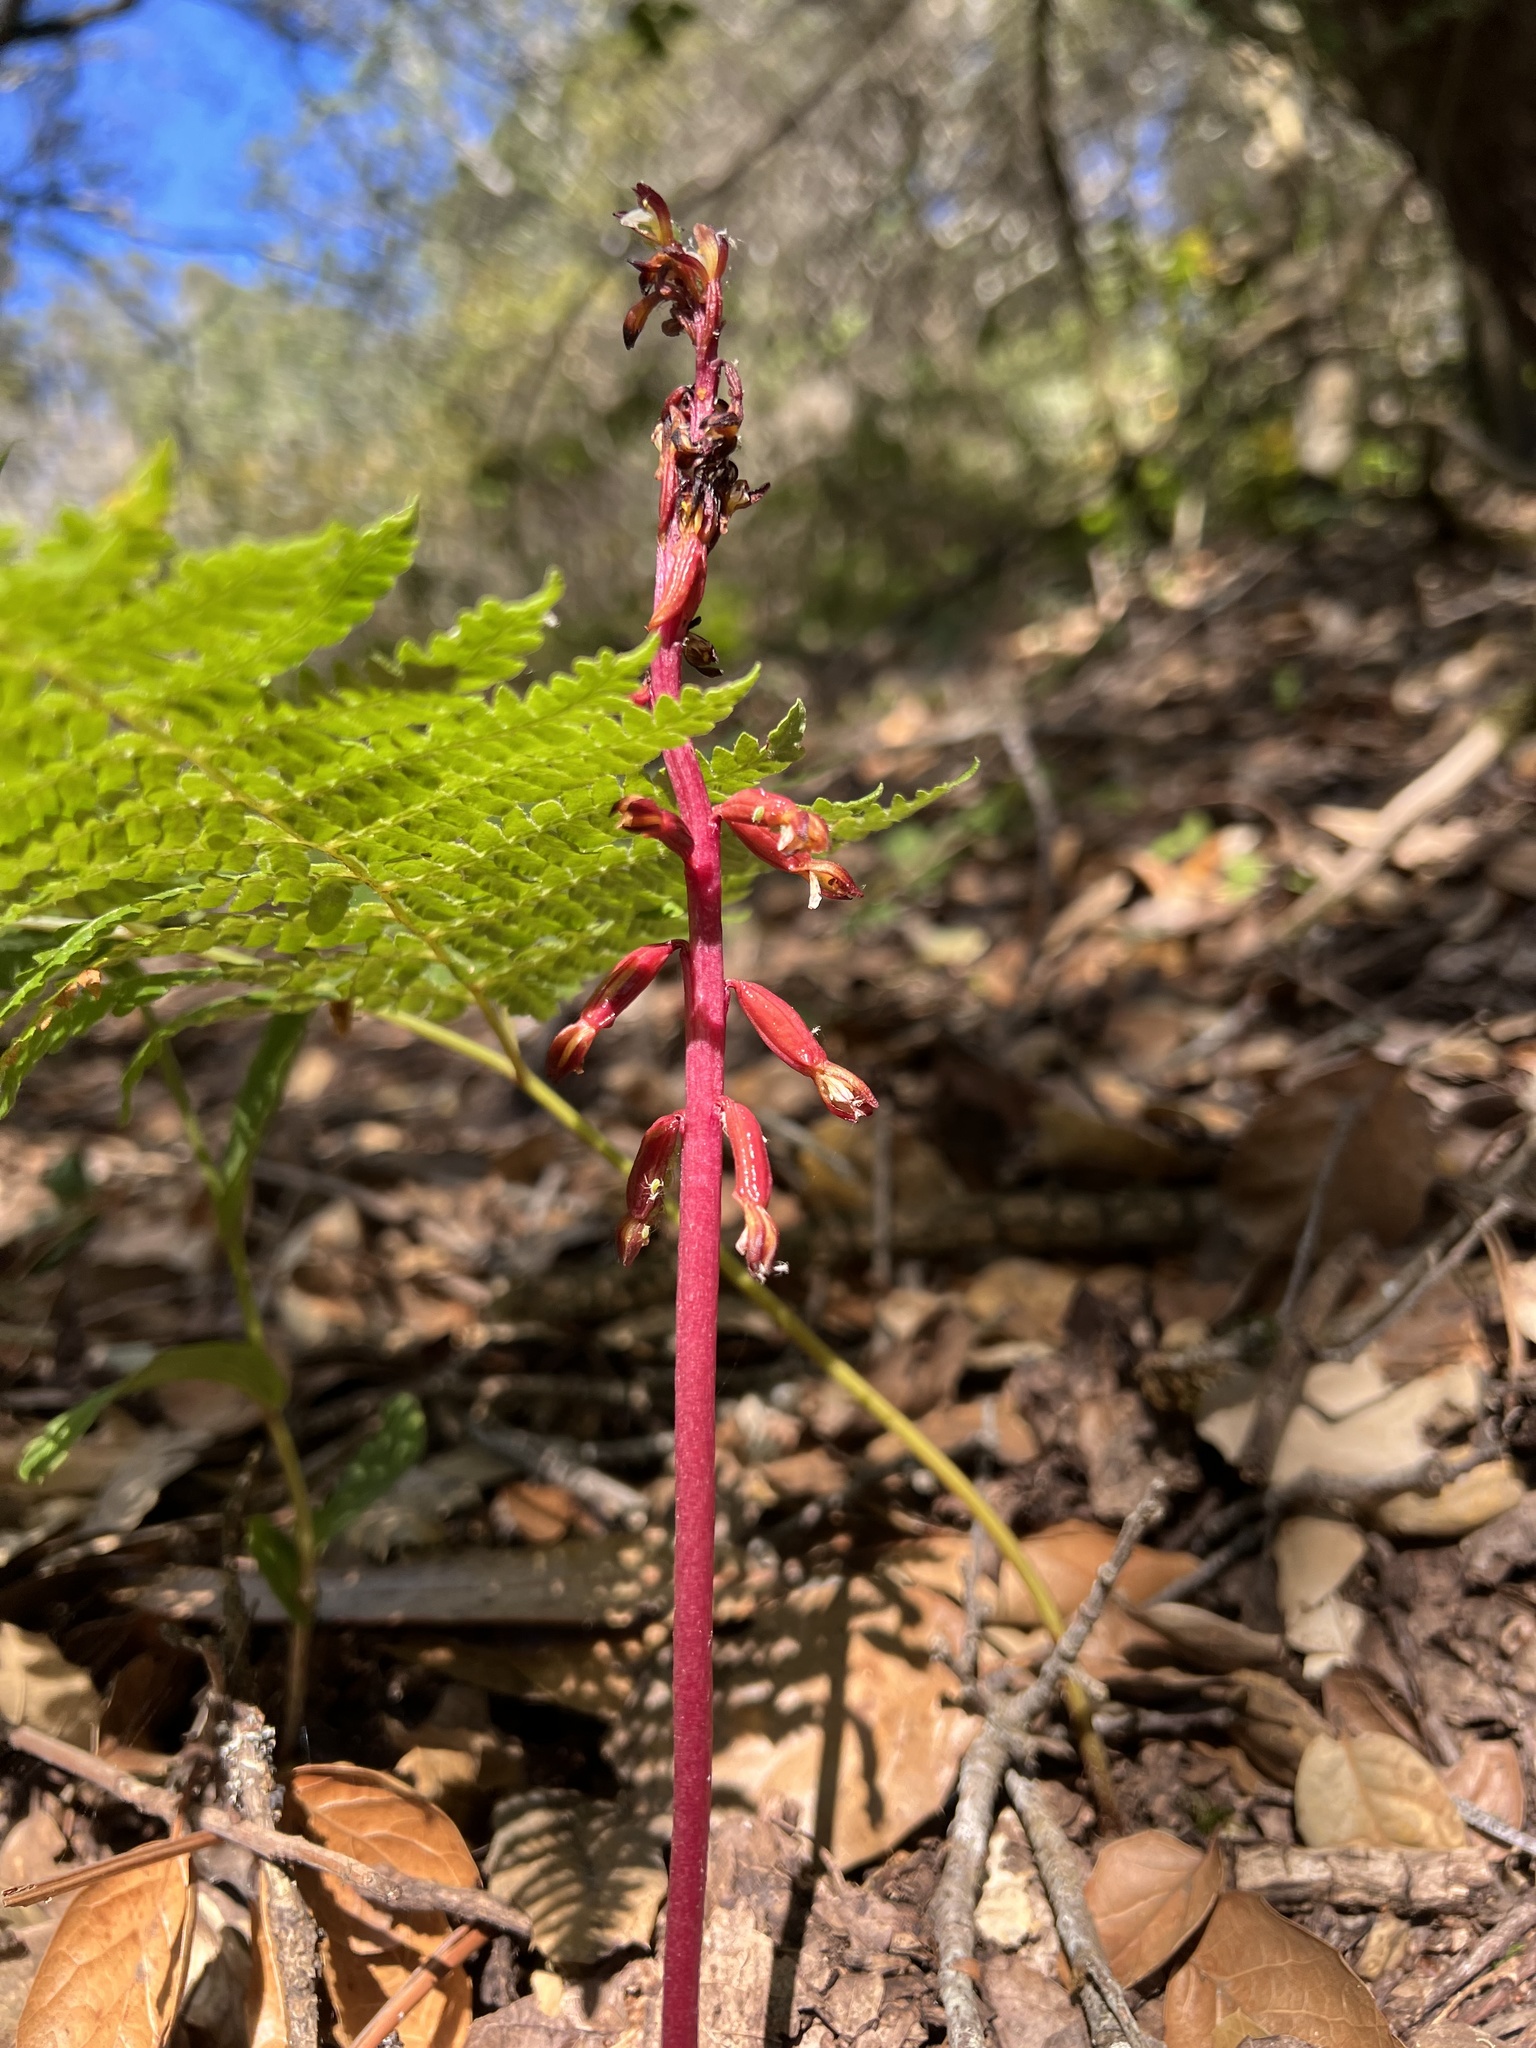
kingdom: Plantae
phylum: Tracheophyta
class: Liliopsida
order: Asparagales
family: Orchidaceae
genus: Corallorhiza
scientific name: Corallorhiza maculata
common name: Spotted coralroot
